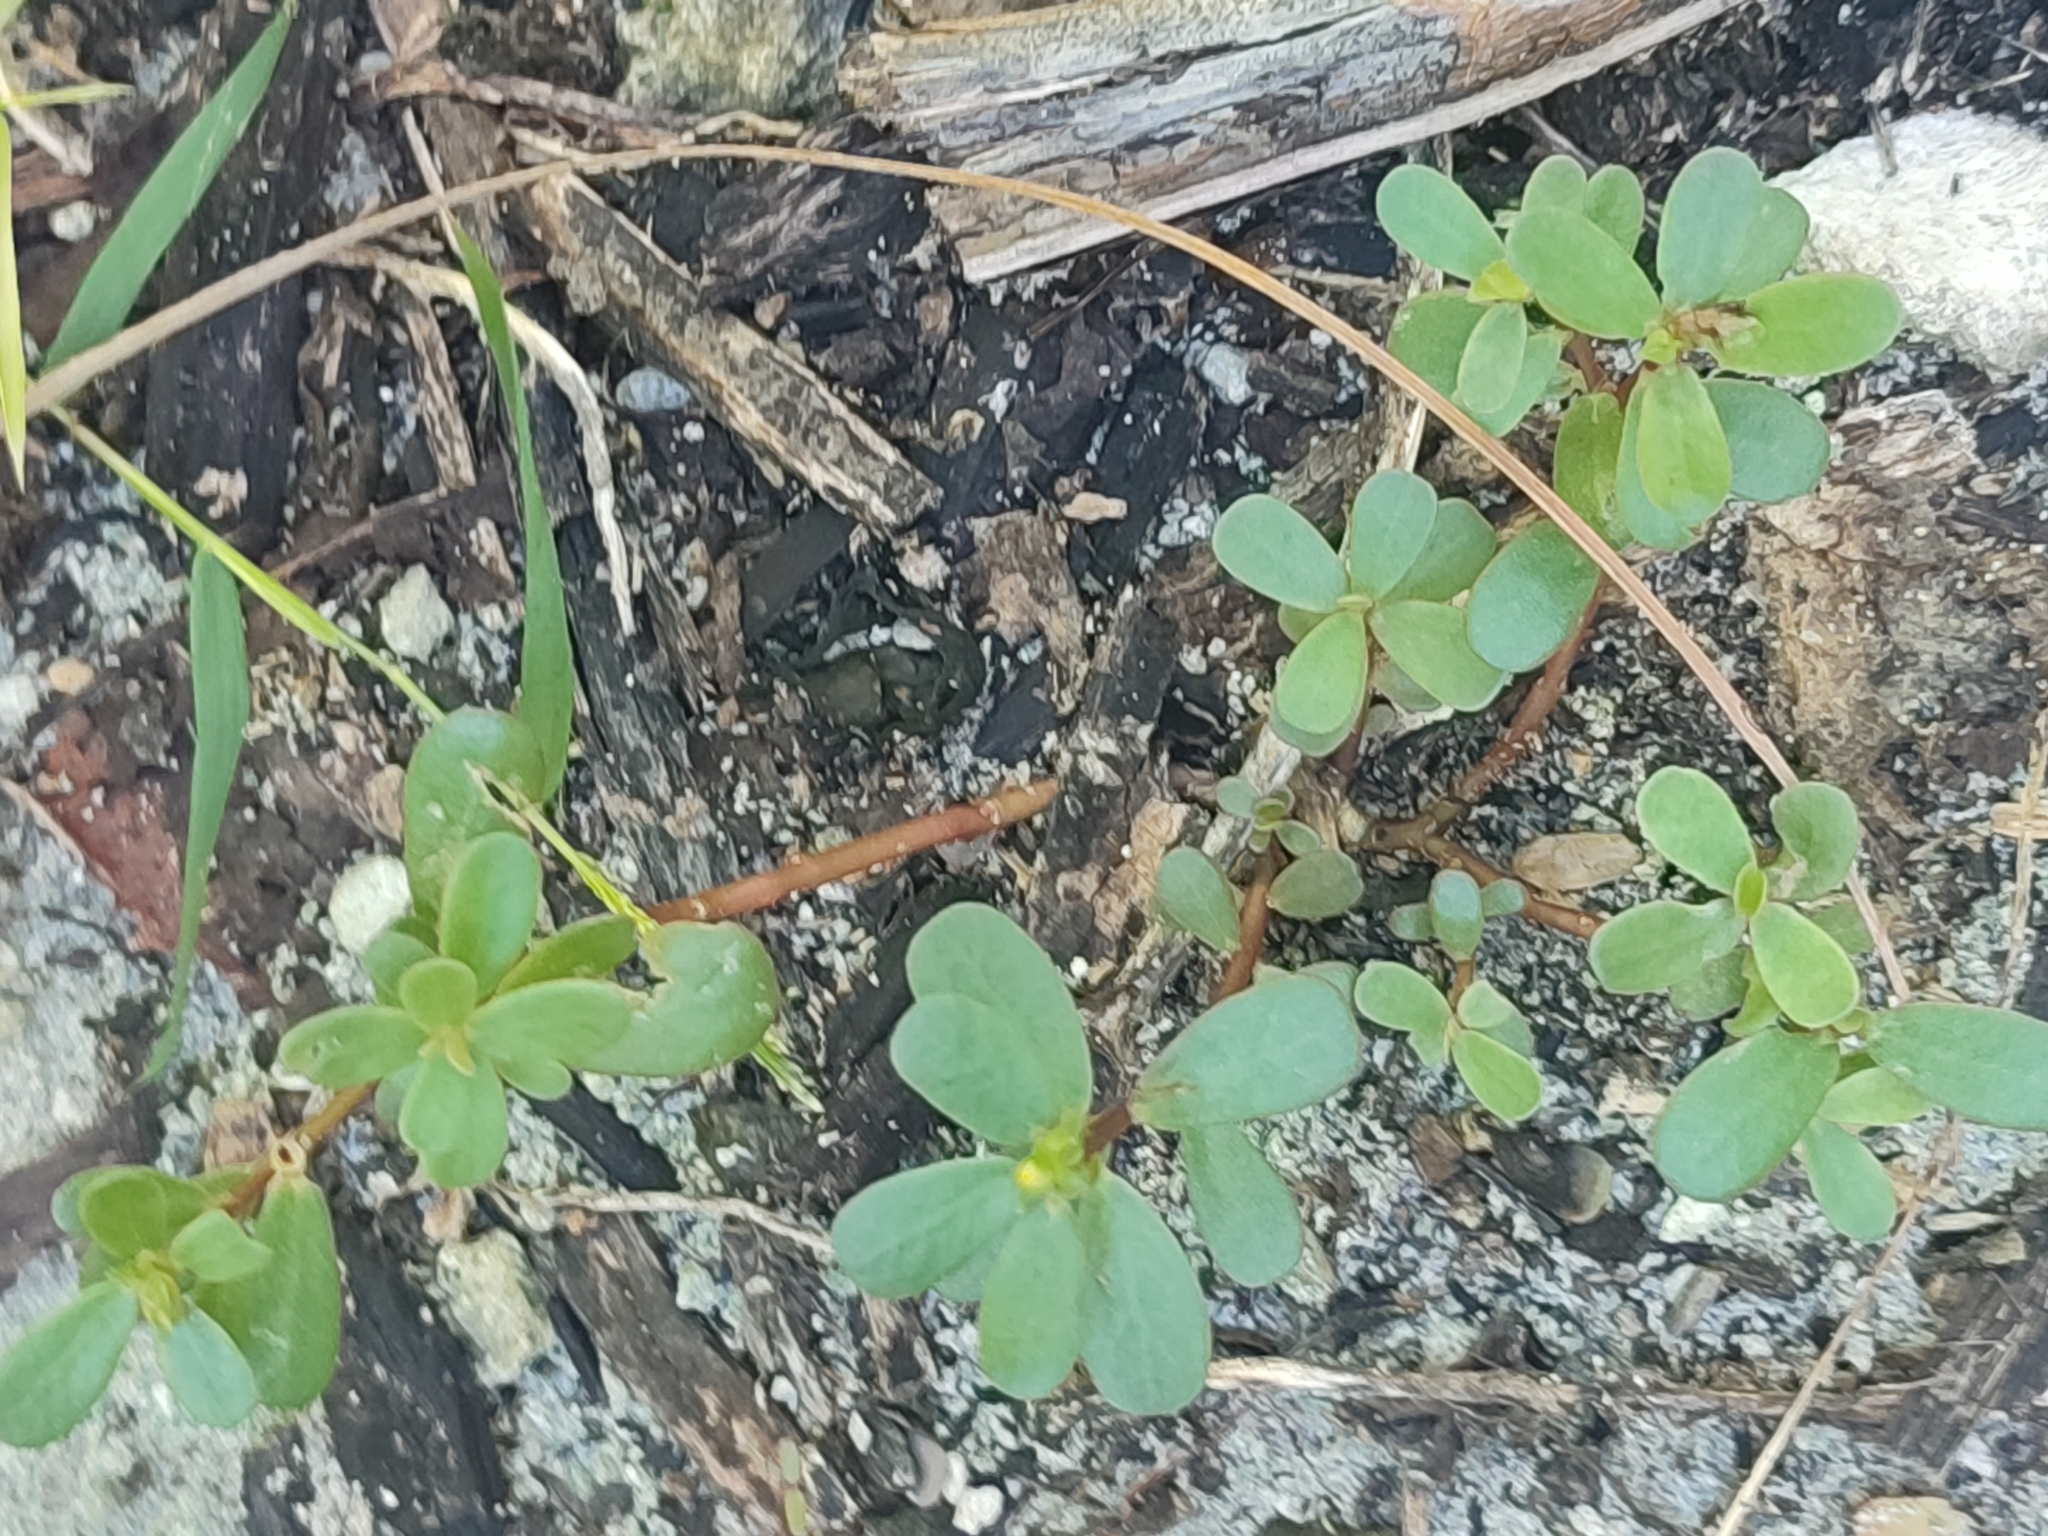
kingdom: Plantae
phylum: Tracheophyta
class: Magnoliopsida
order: Caryophyllales
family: Portulacaceae
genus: Portulaca
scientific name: Portulaca oleracea
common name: Common purslane
